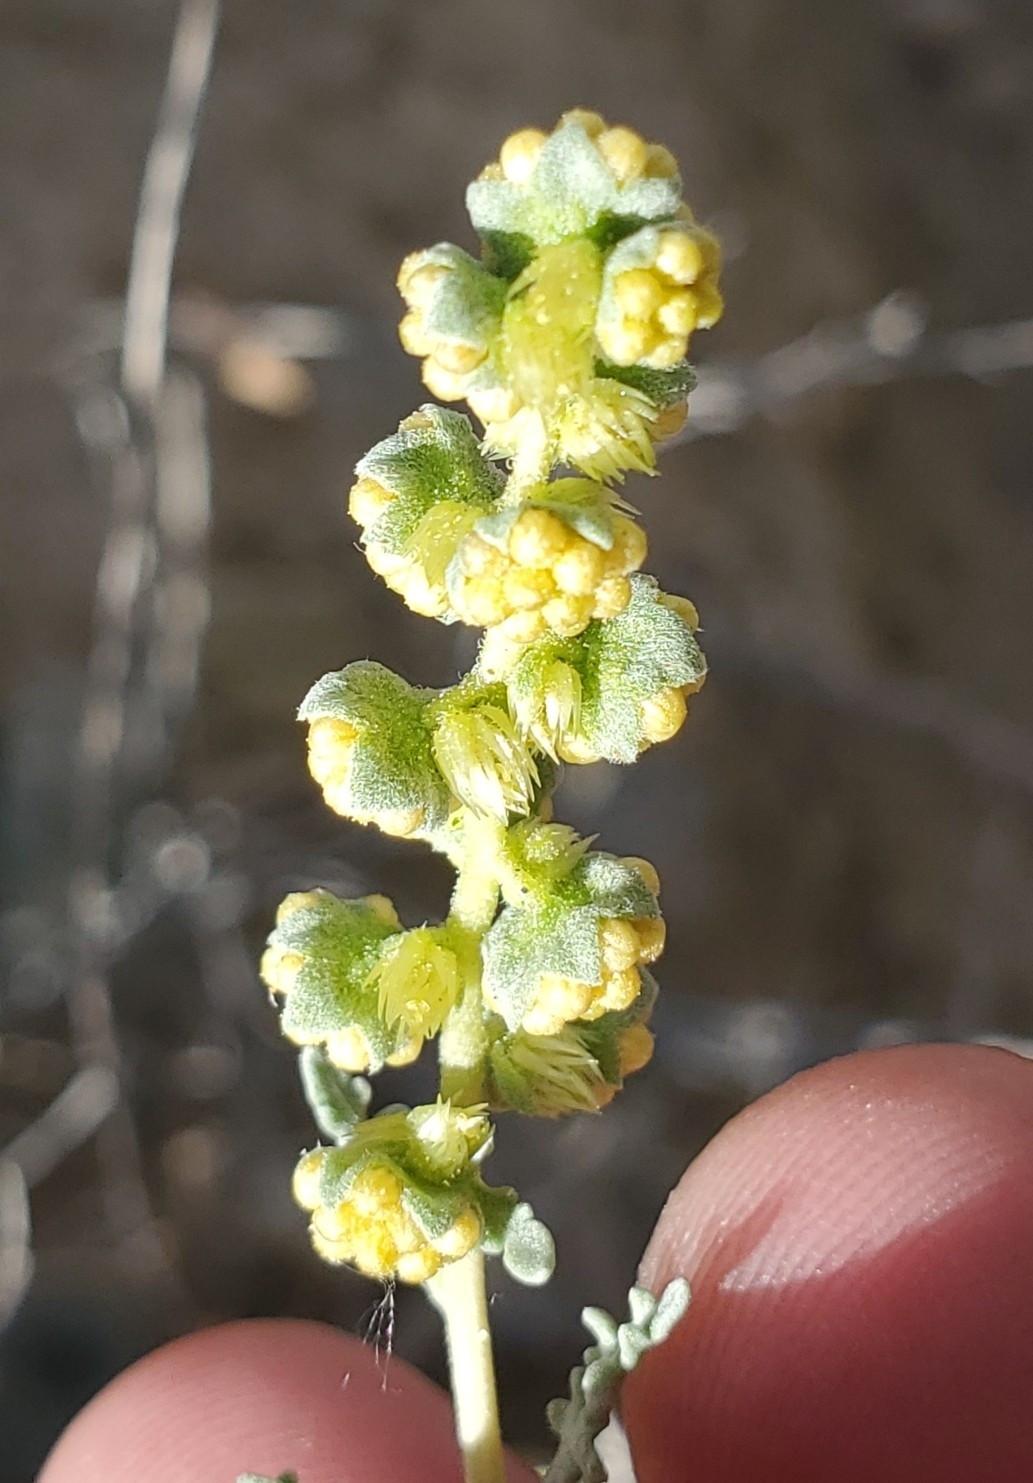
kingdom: Plantae
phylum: Tracheophyta
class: Magnoliopsida
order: Asterales
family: Asteraceae
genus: Ambrosia
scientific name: Ambrosia dumosa
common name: Bur-sage
